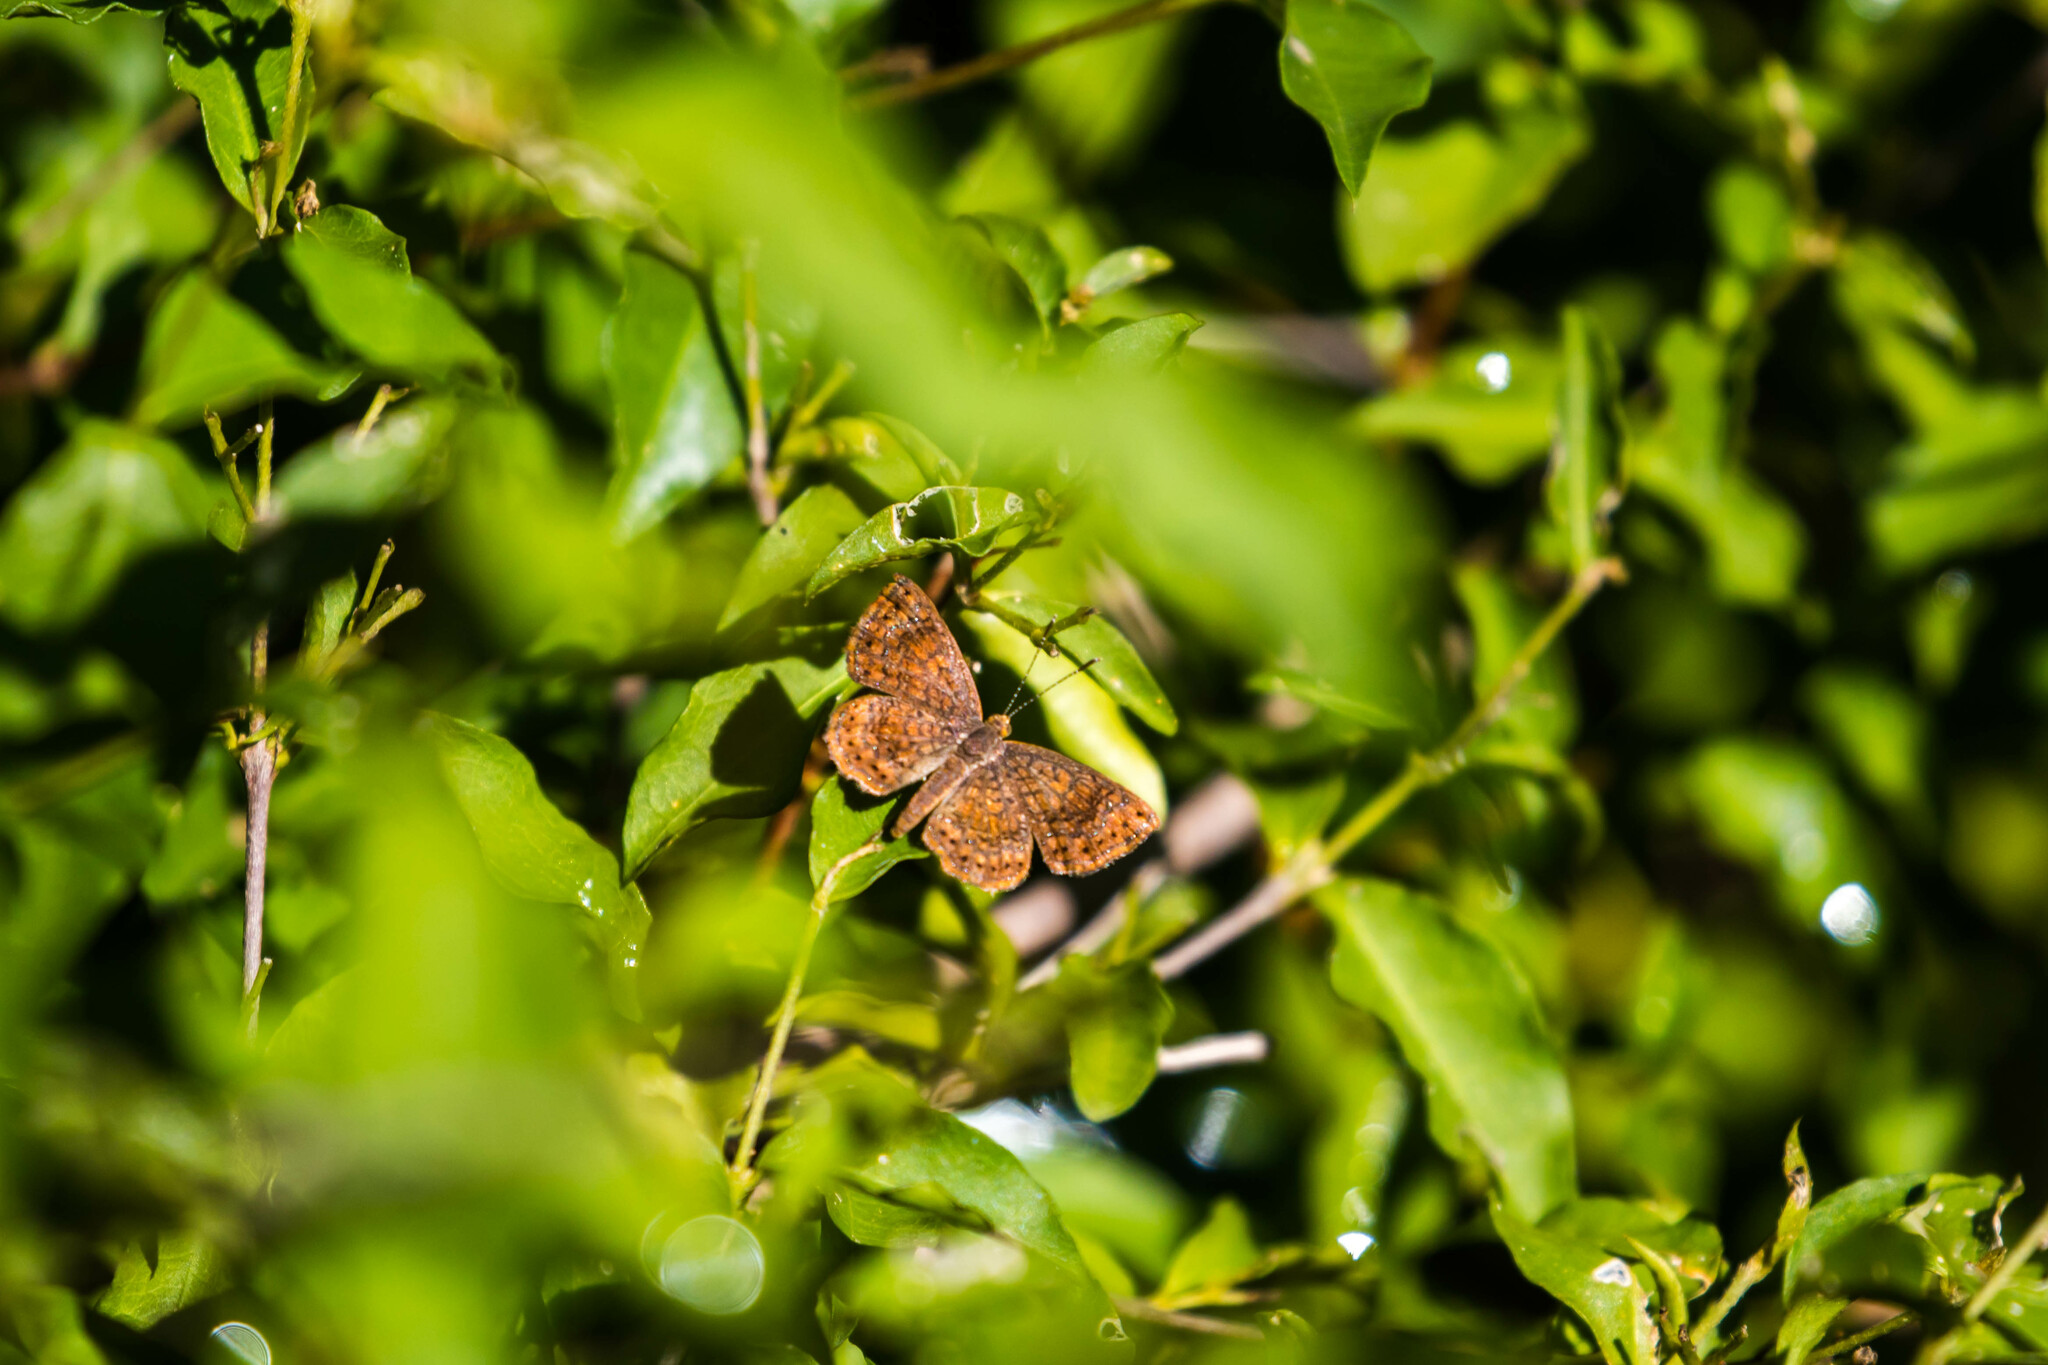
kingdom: Animalia
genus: Calephelis
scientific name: Calephelis perditalis
